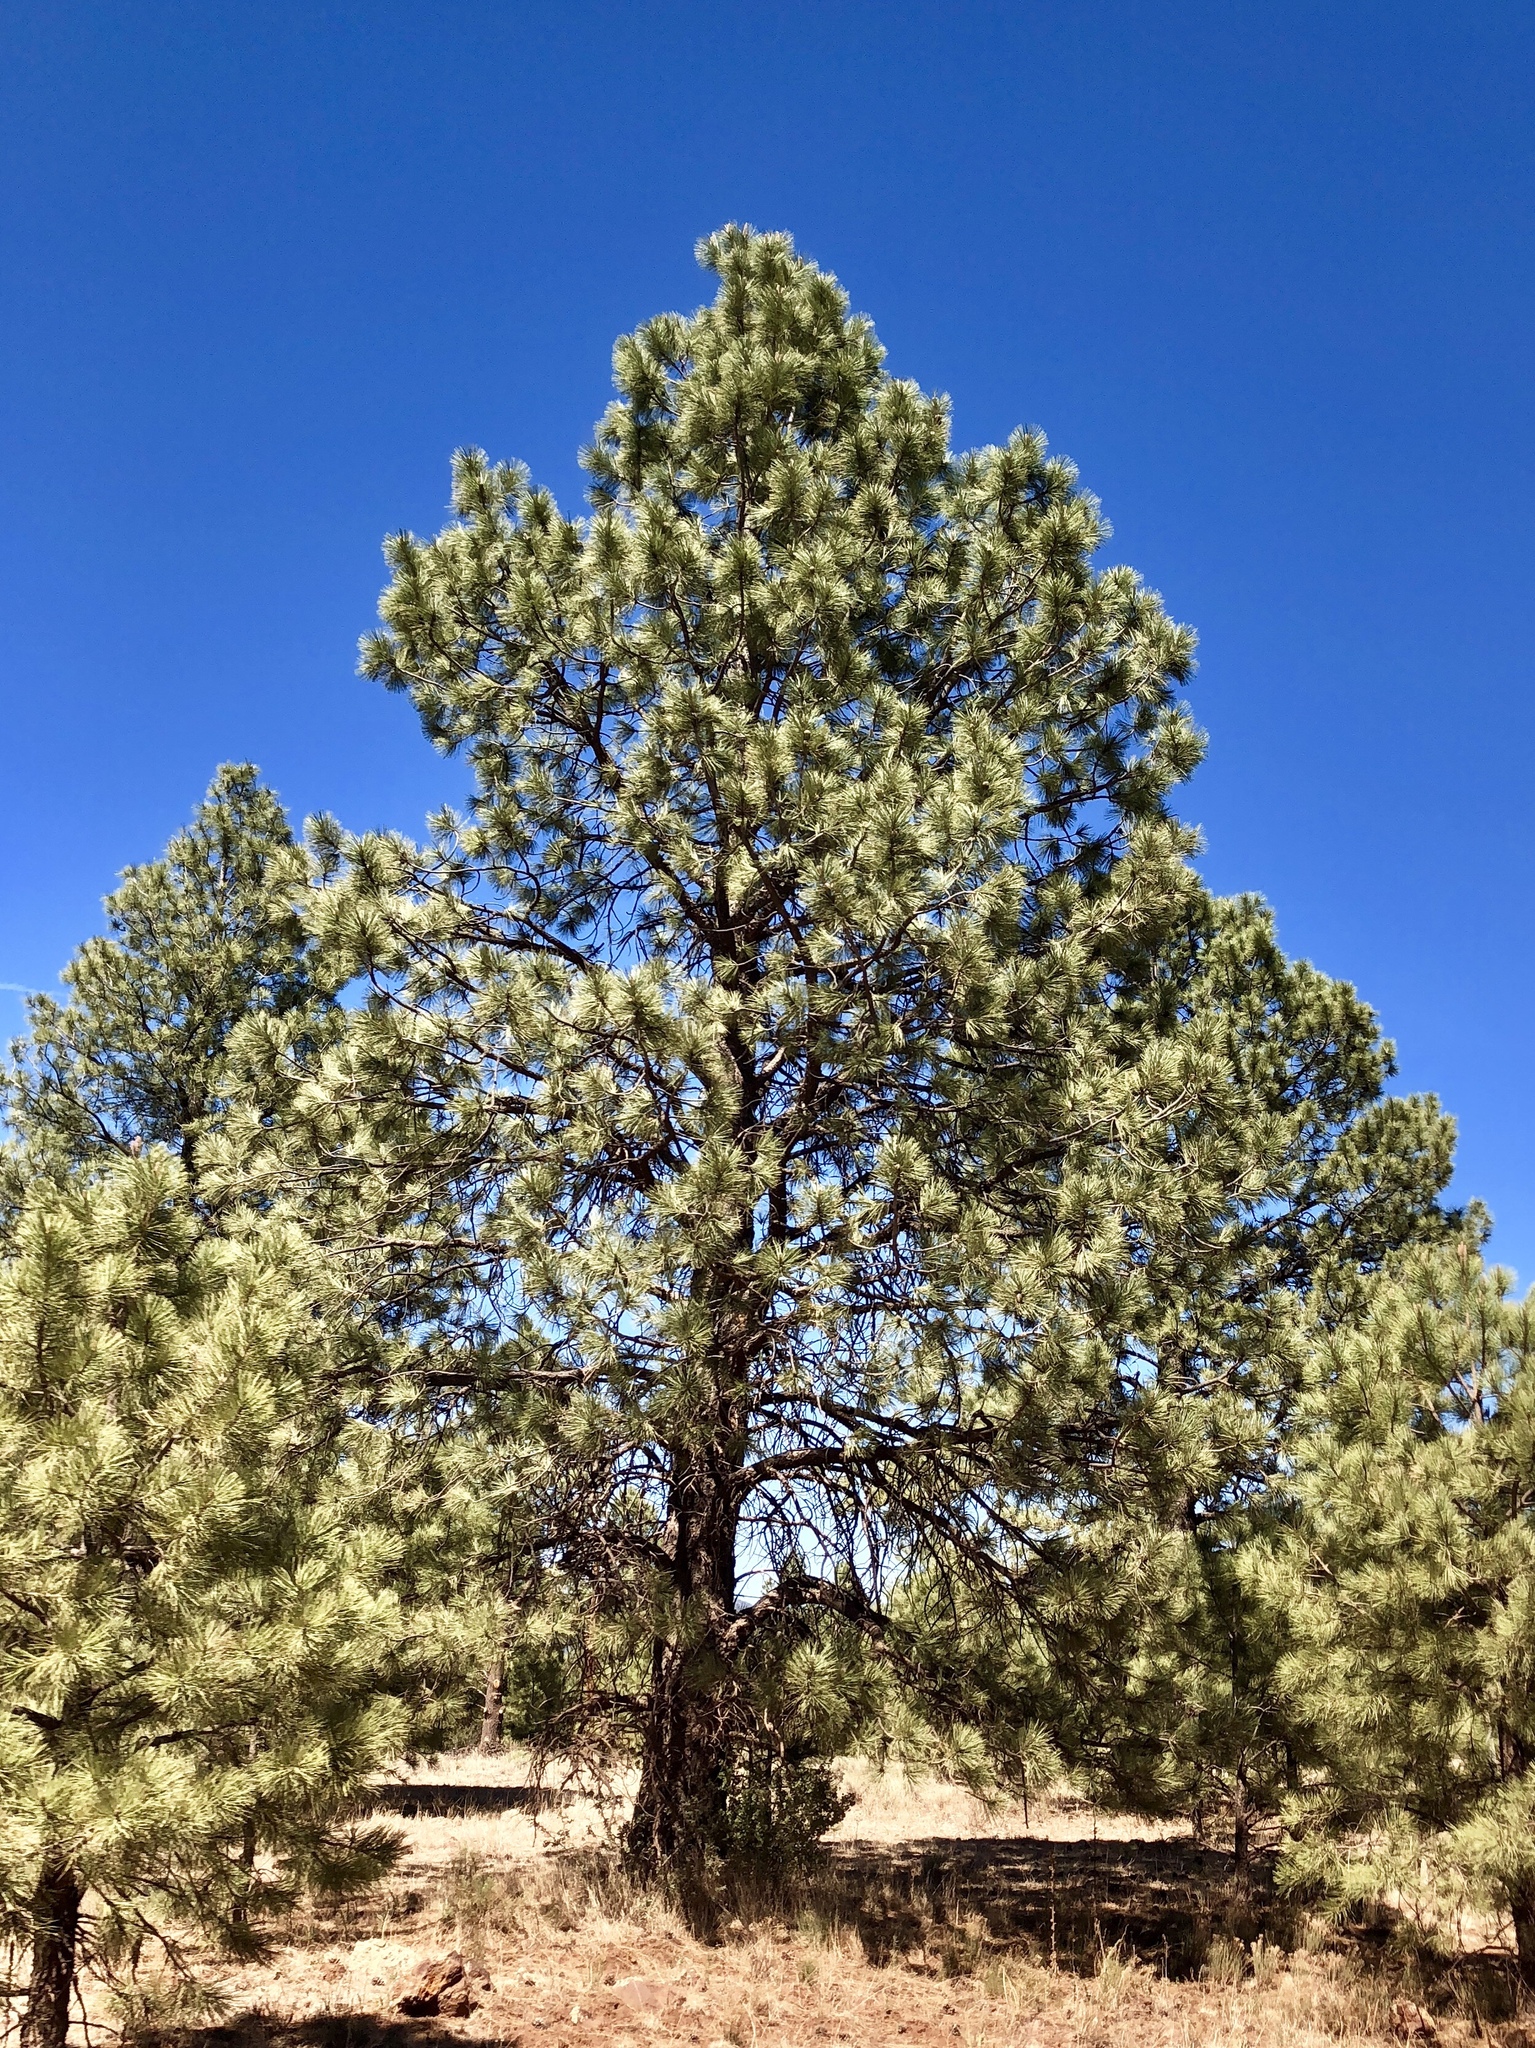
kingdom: Plantae
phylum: Tracheophyta
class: Pinopsida
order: Pinales
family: Pinaceae
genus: Pinus
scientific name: Pinus ponderosa
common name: Western yellow-pine
